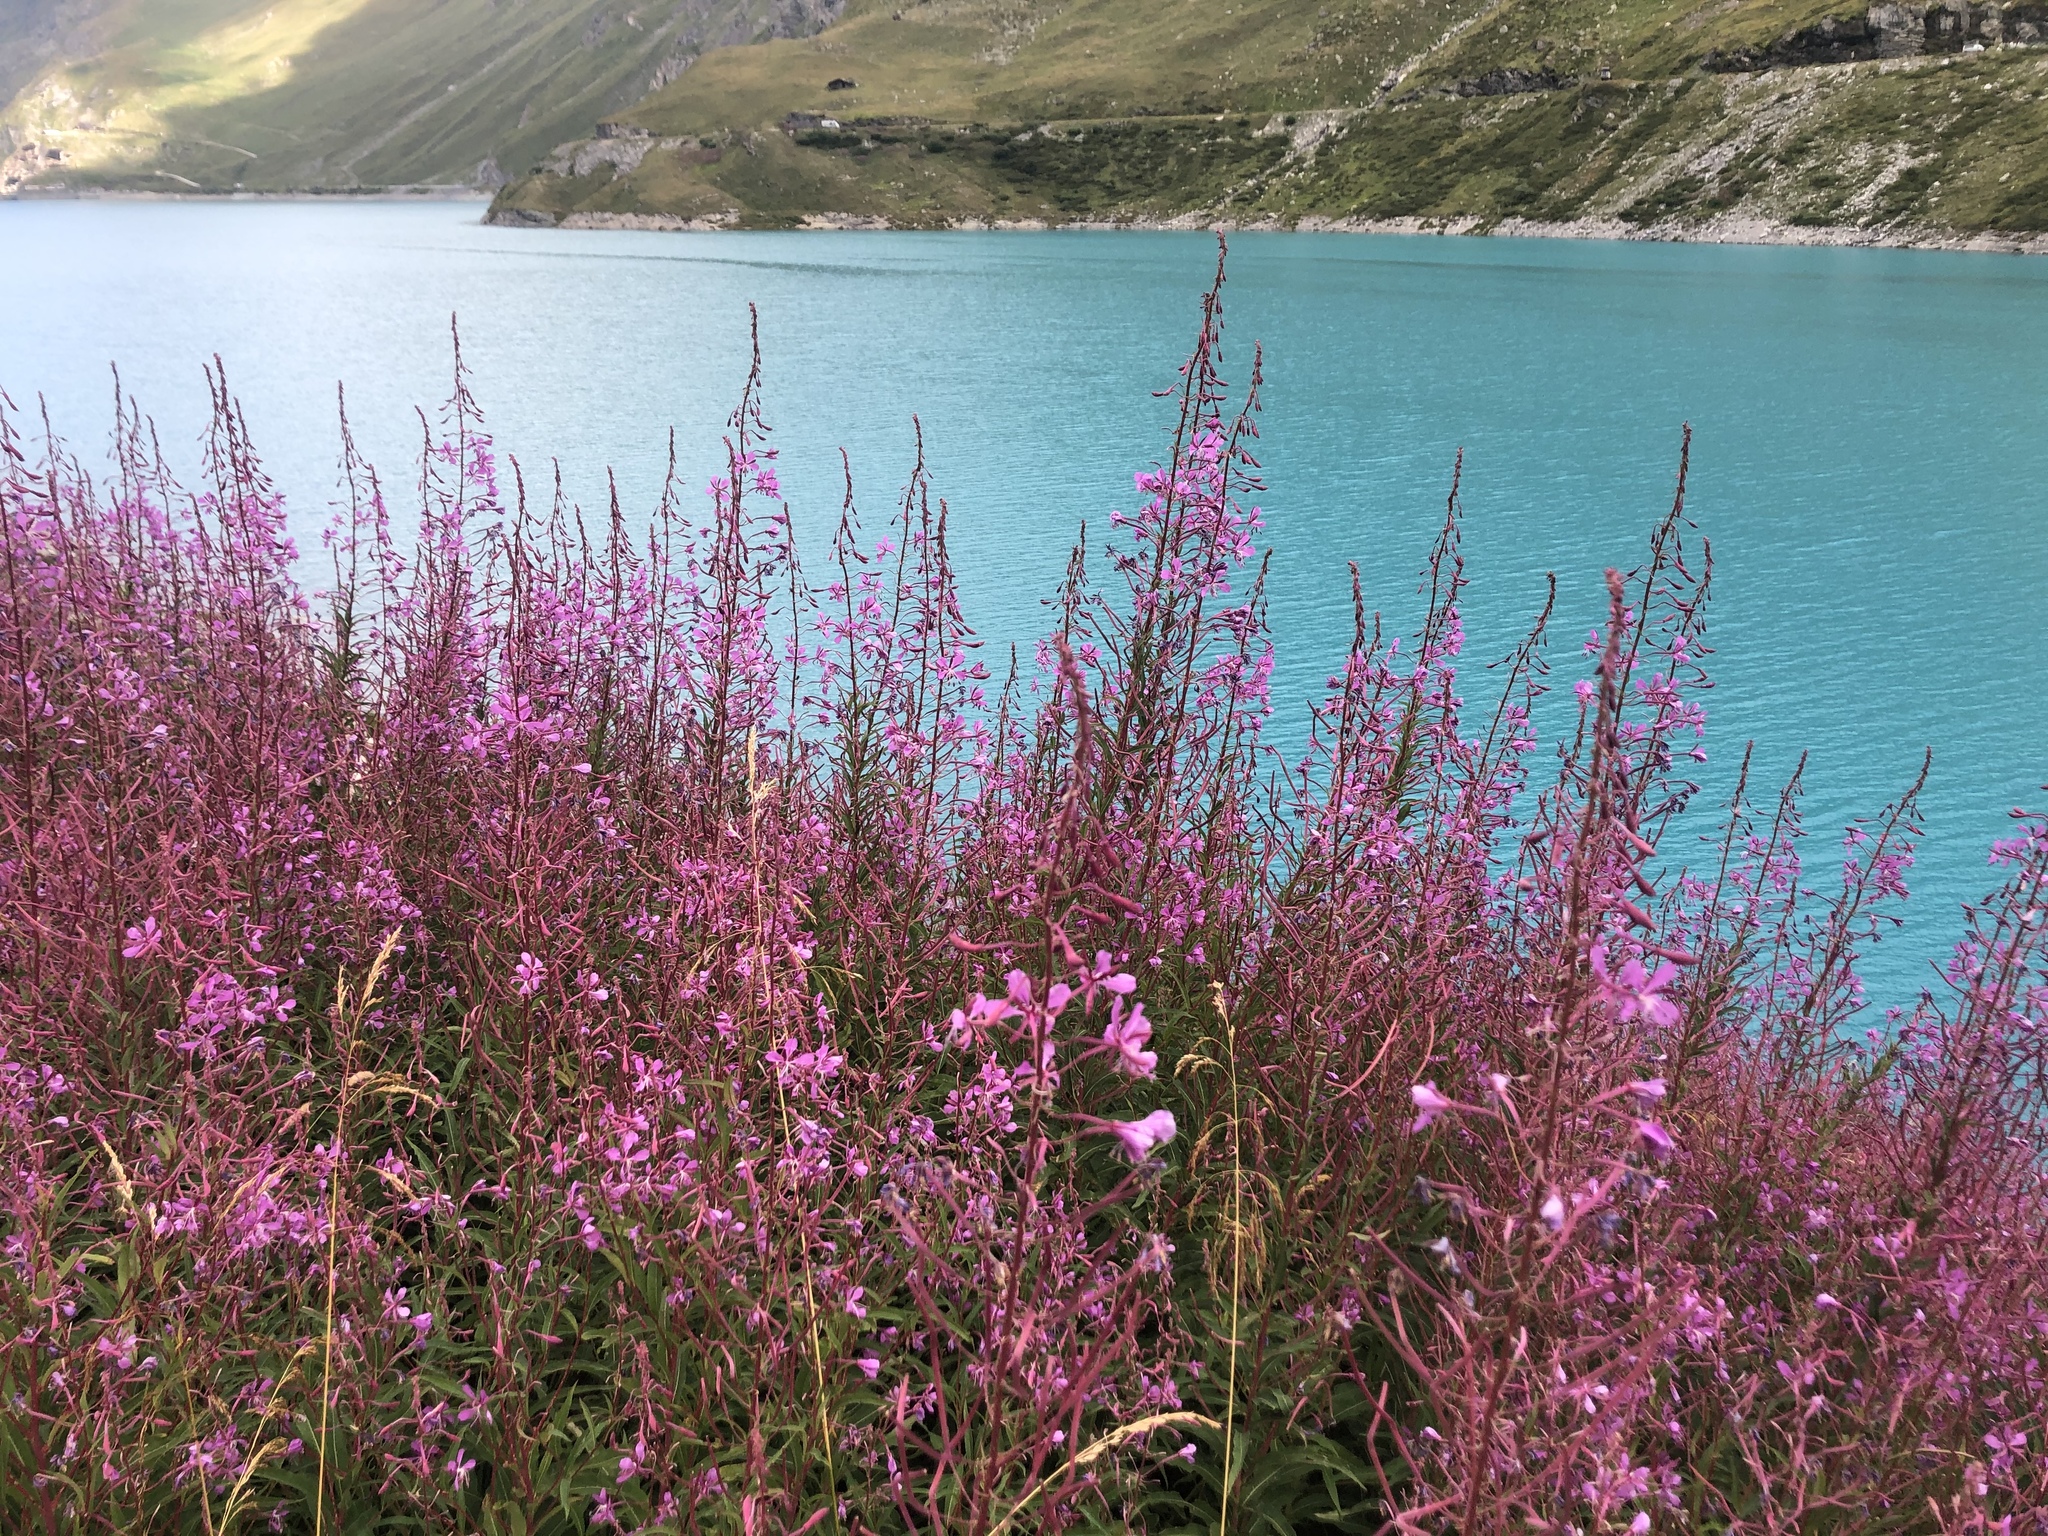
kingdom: Plantae
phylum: Tracheophyta
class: Magnoliopsida
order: Myrtales
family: Onagraceae
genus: Chamaenerion
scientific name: Chamaenerion angustifolium
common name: Fireweed
